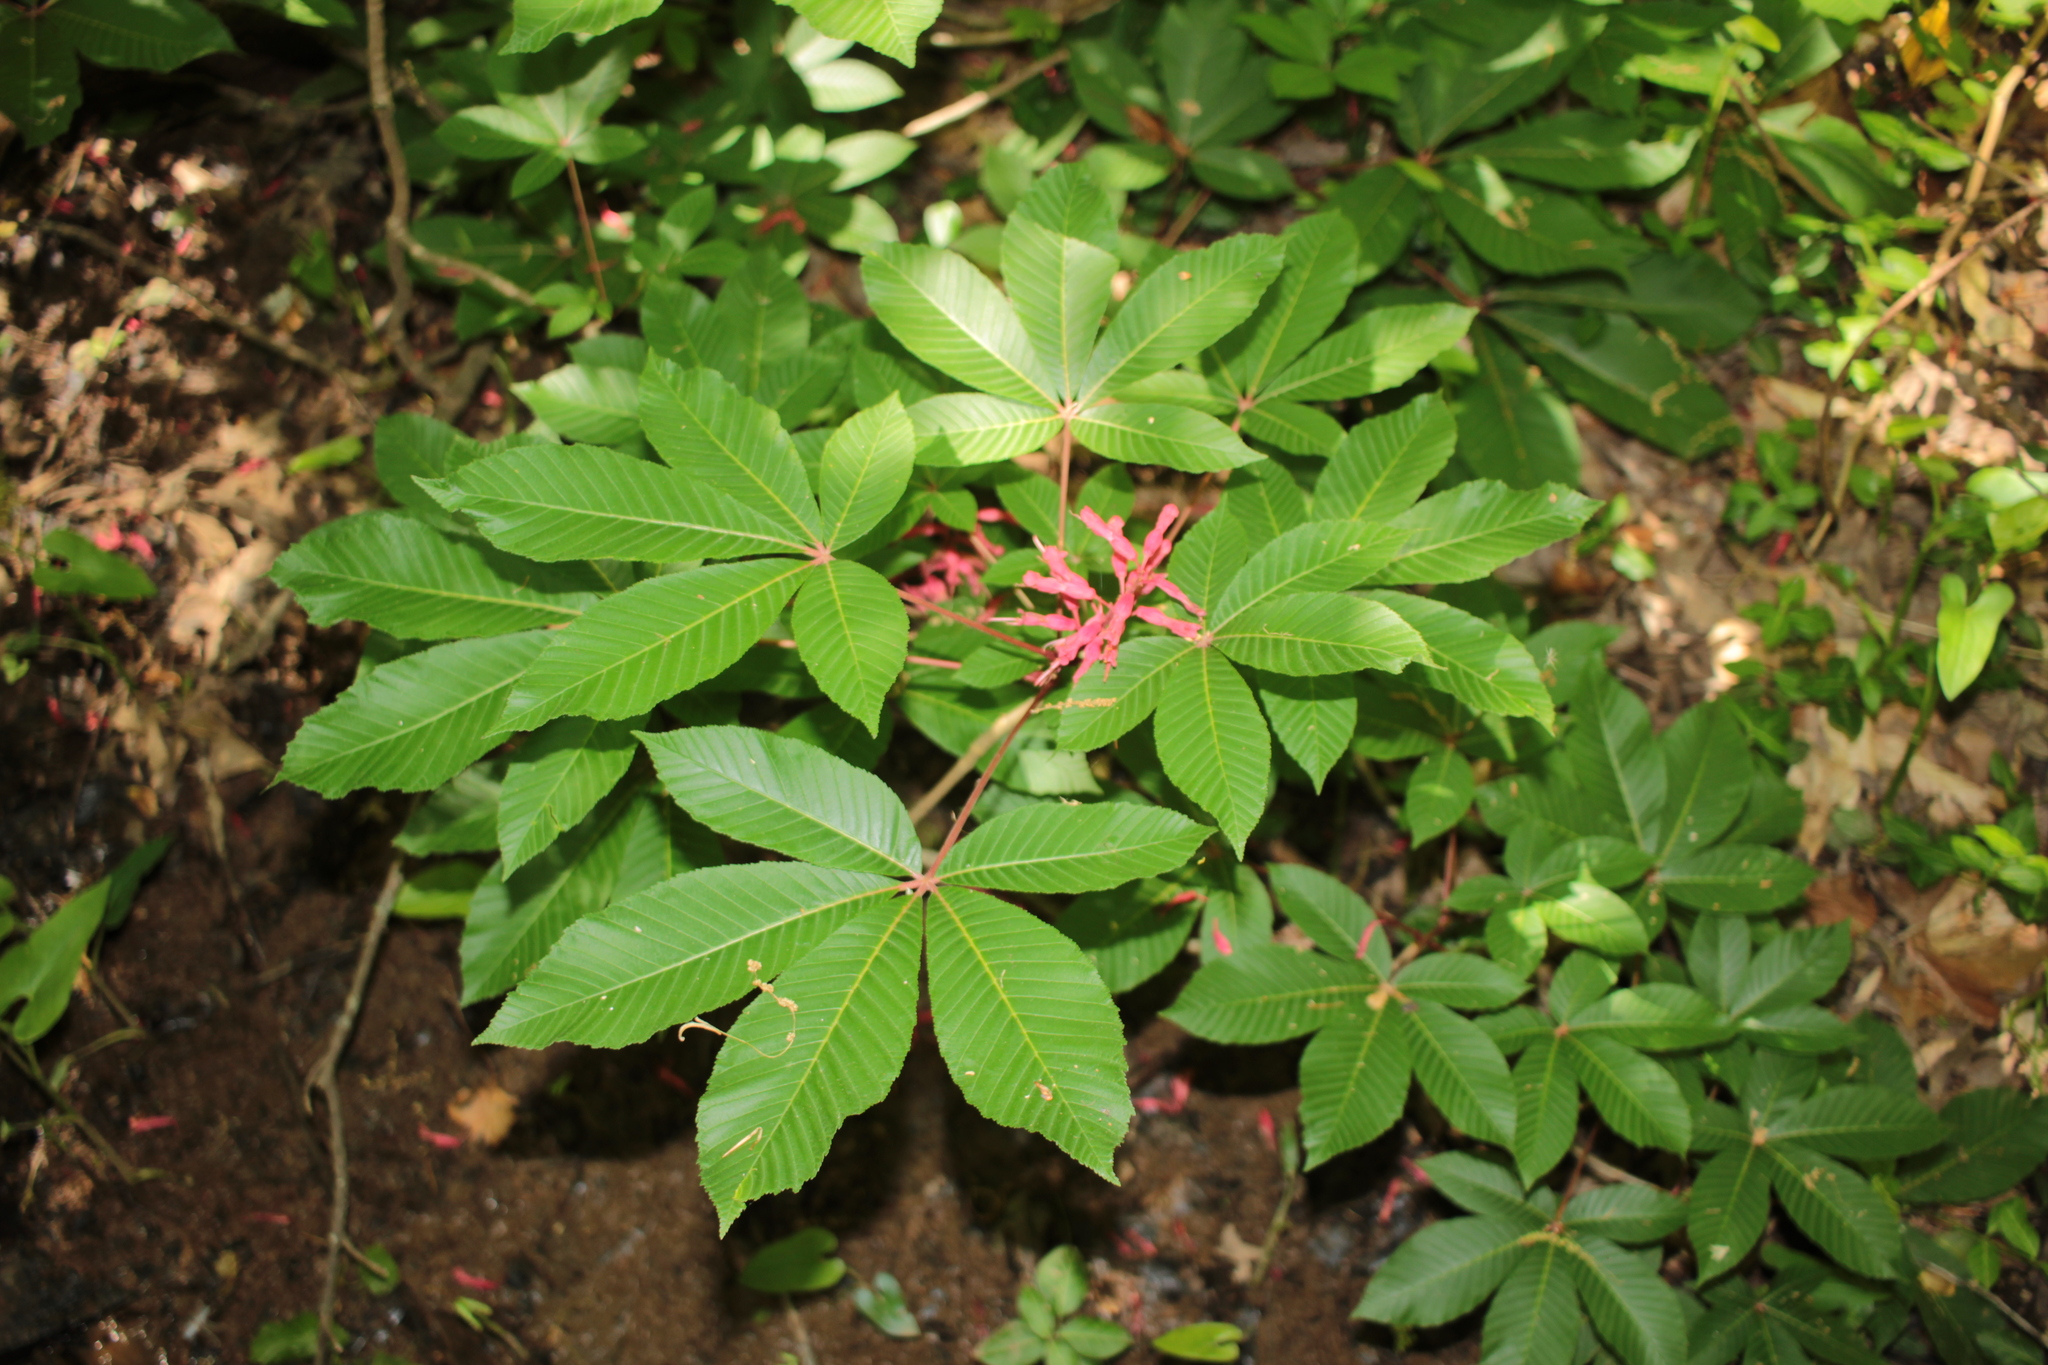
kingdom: Plantae
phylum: Tracheophyta
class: Magnoliopsida
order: Sapindales
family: Sapindaceae
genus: Aesculus
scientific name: Aesculus pavia
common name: Red buckeye
